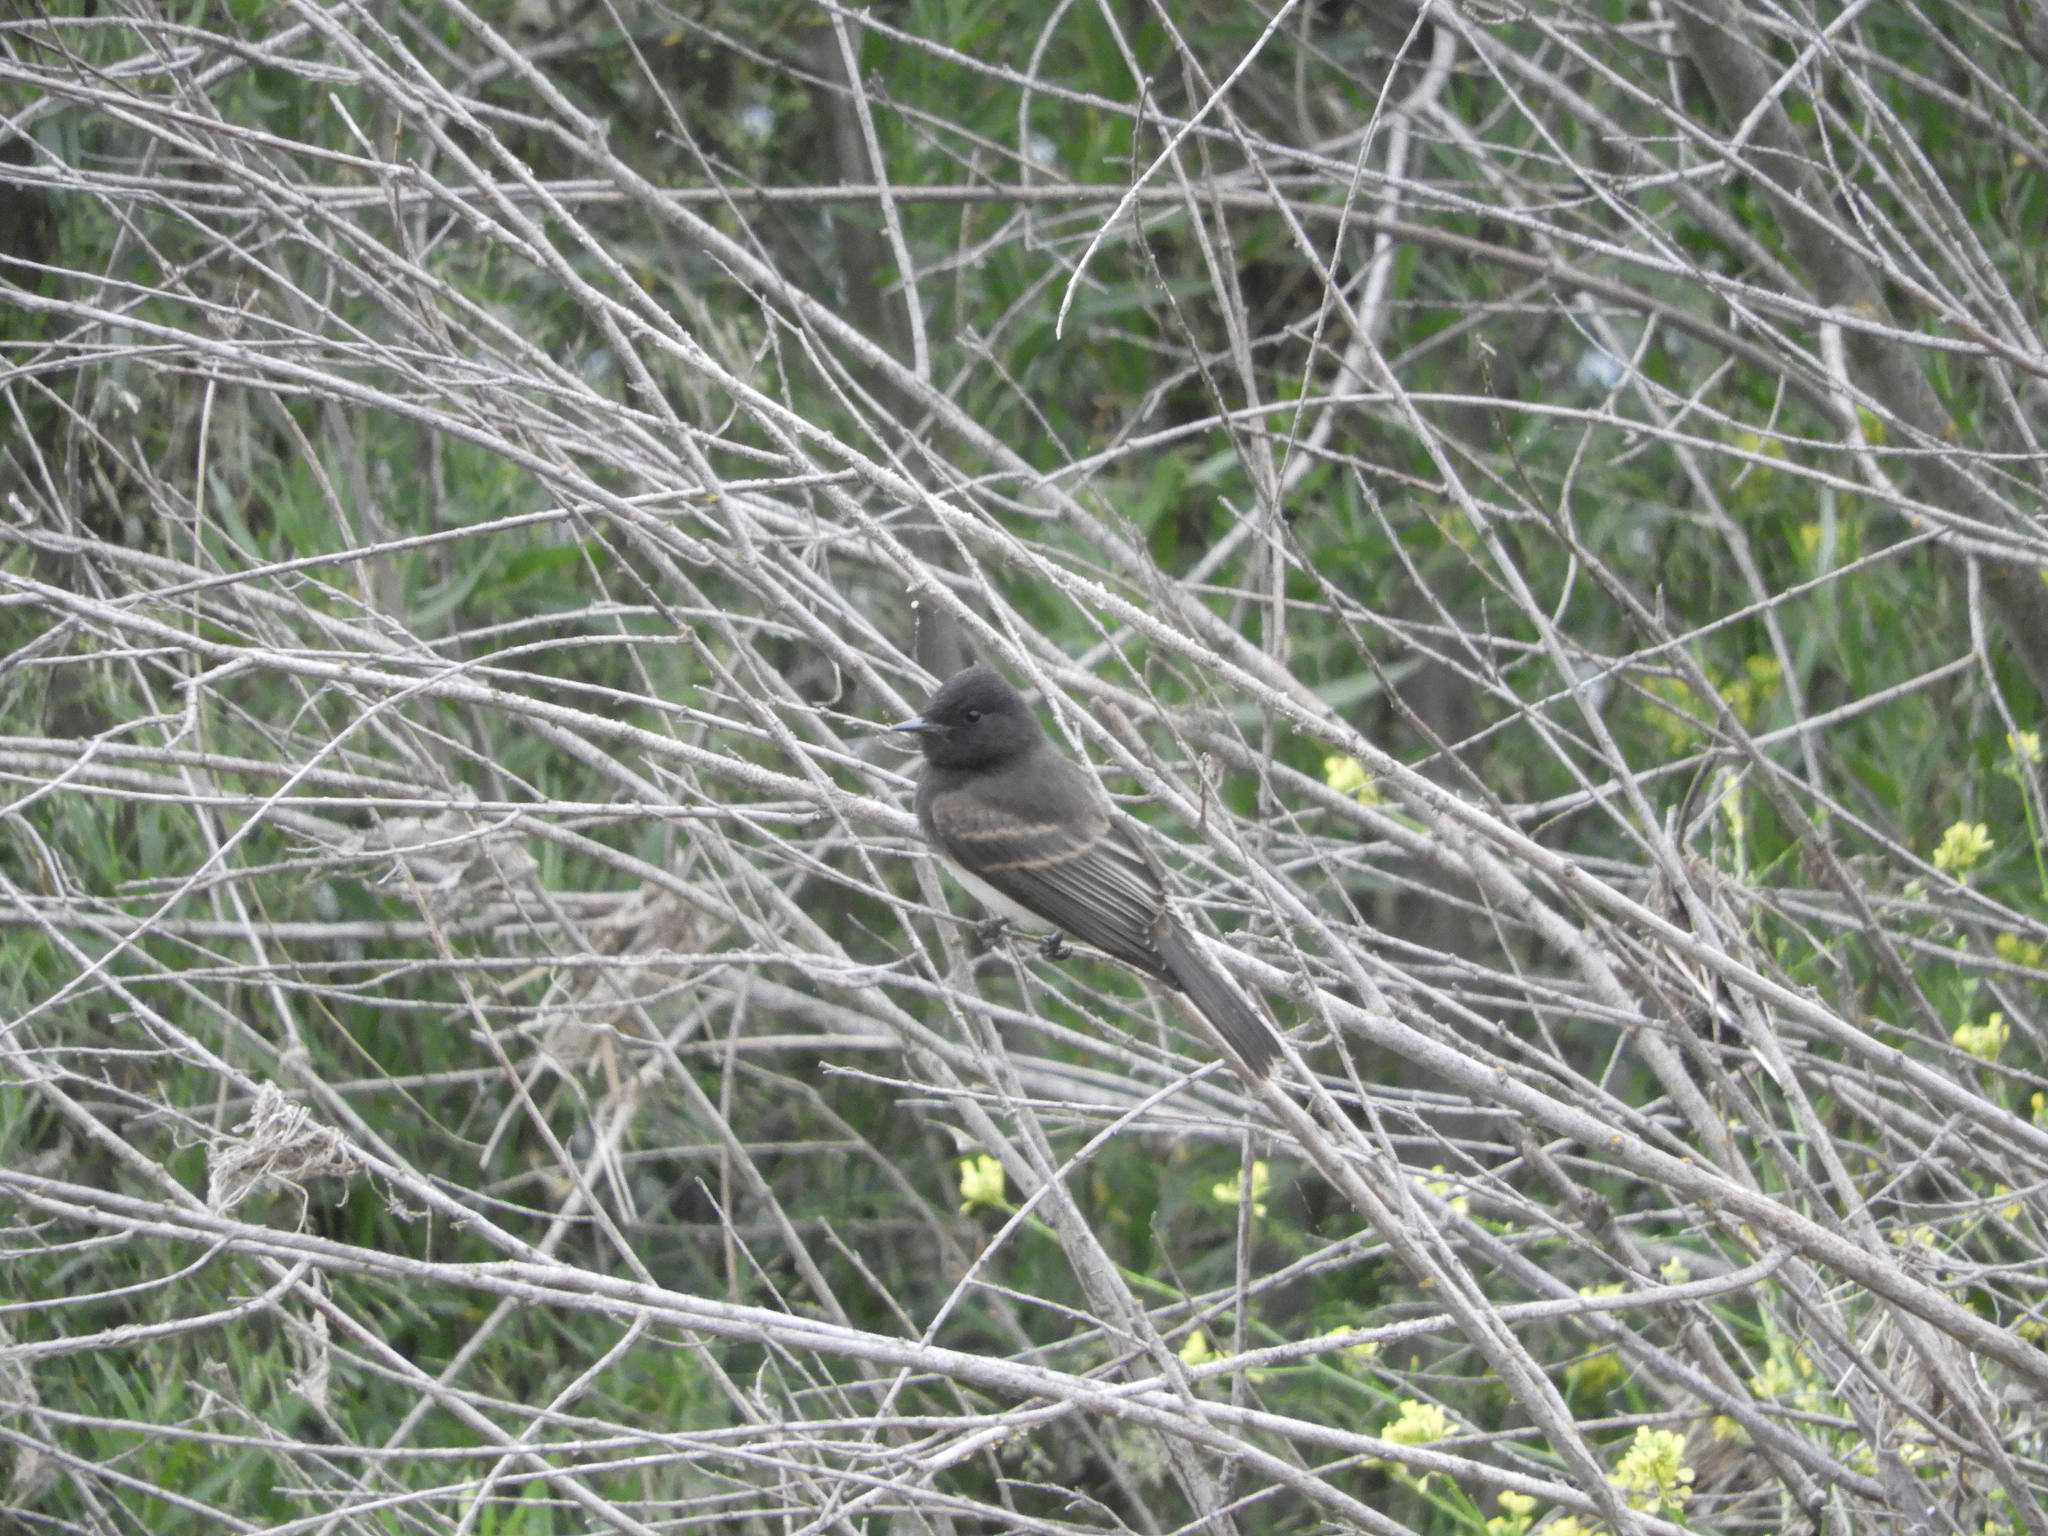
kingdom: Animalia
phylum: Chordata
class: Aves
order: Passeriformes
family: Tyrannidae
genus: Sayornis
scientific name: Sayornis nigricans
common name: Black phoebe
